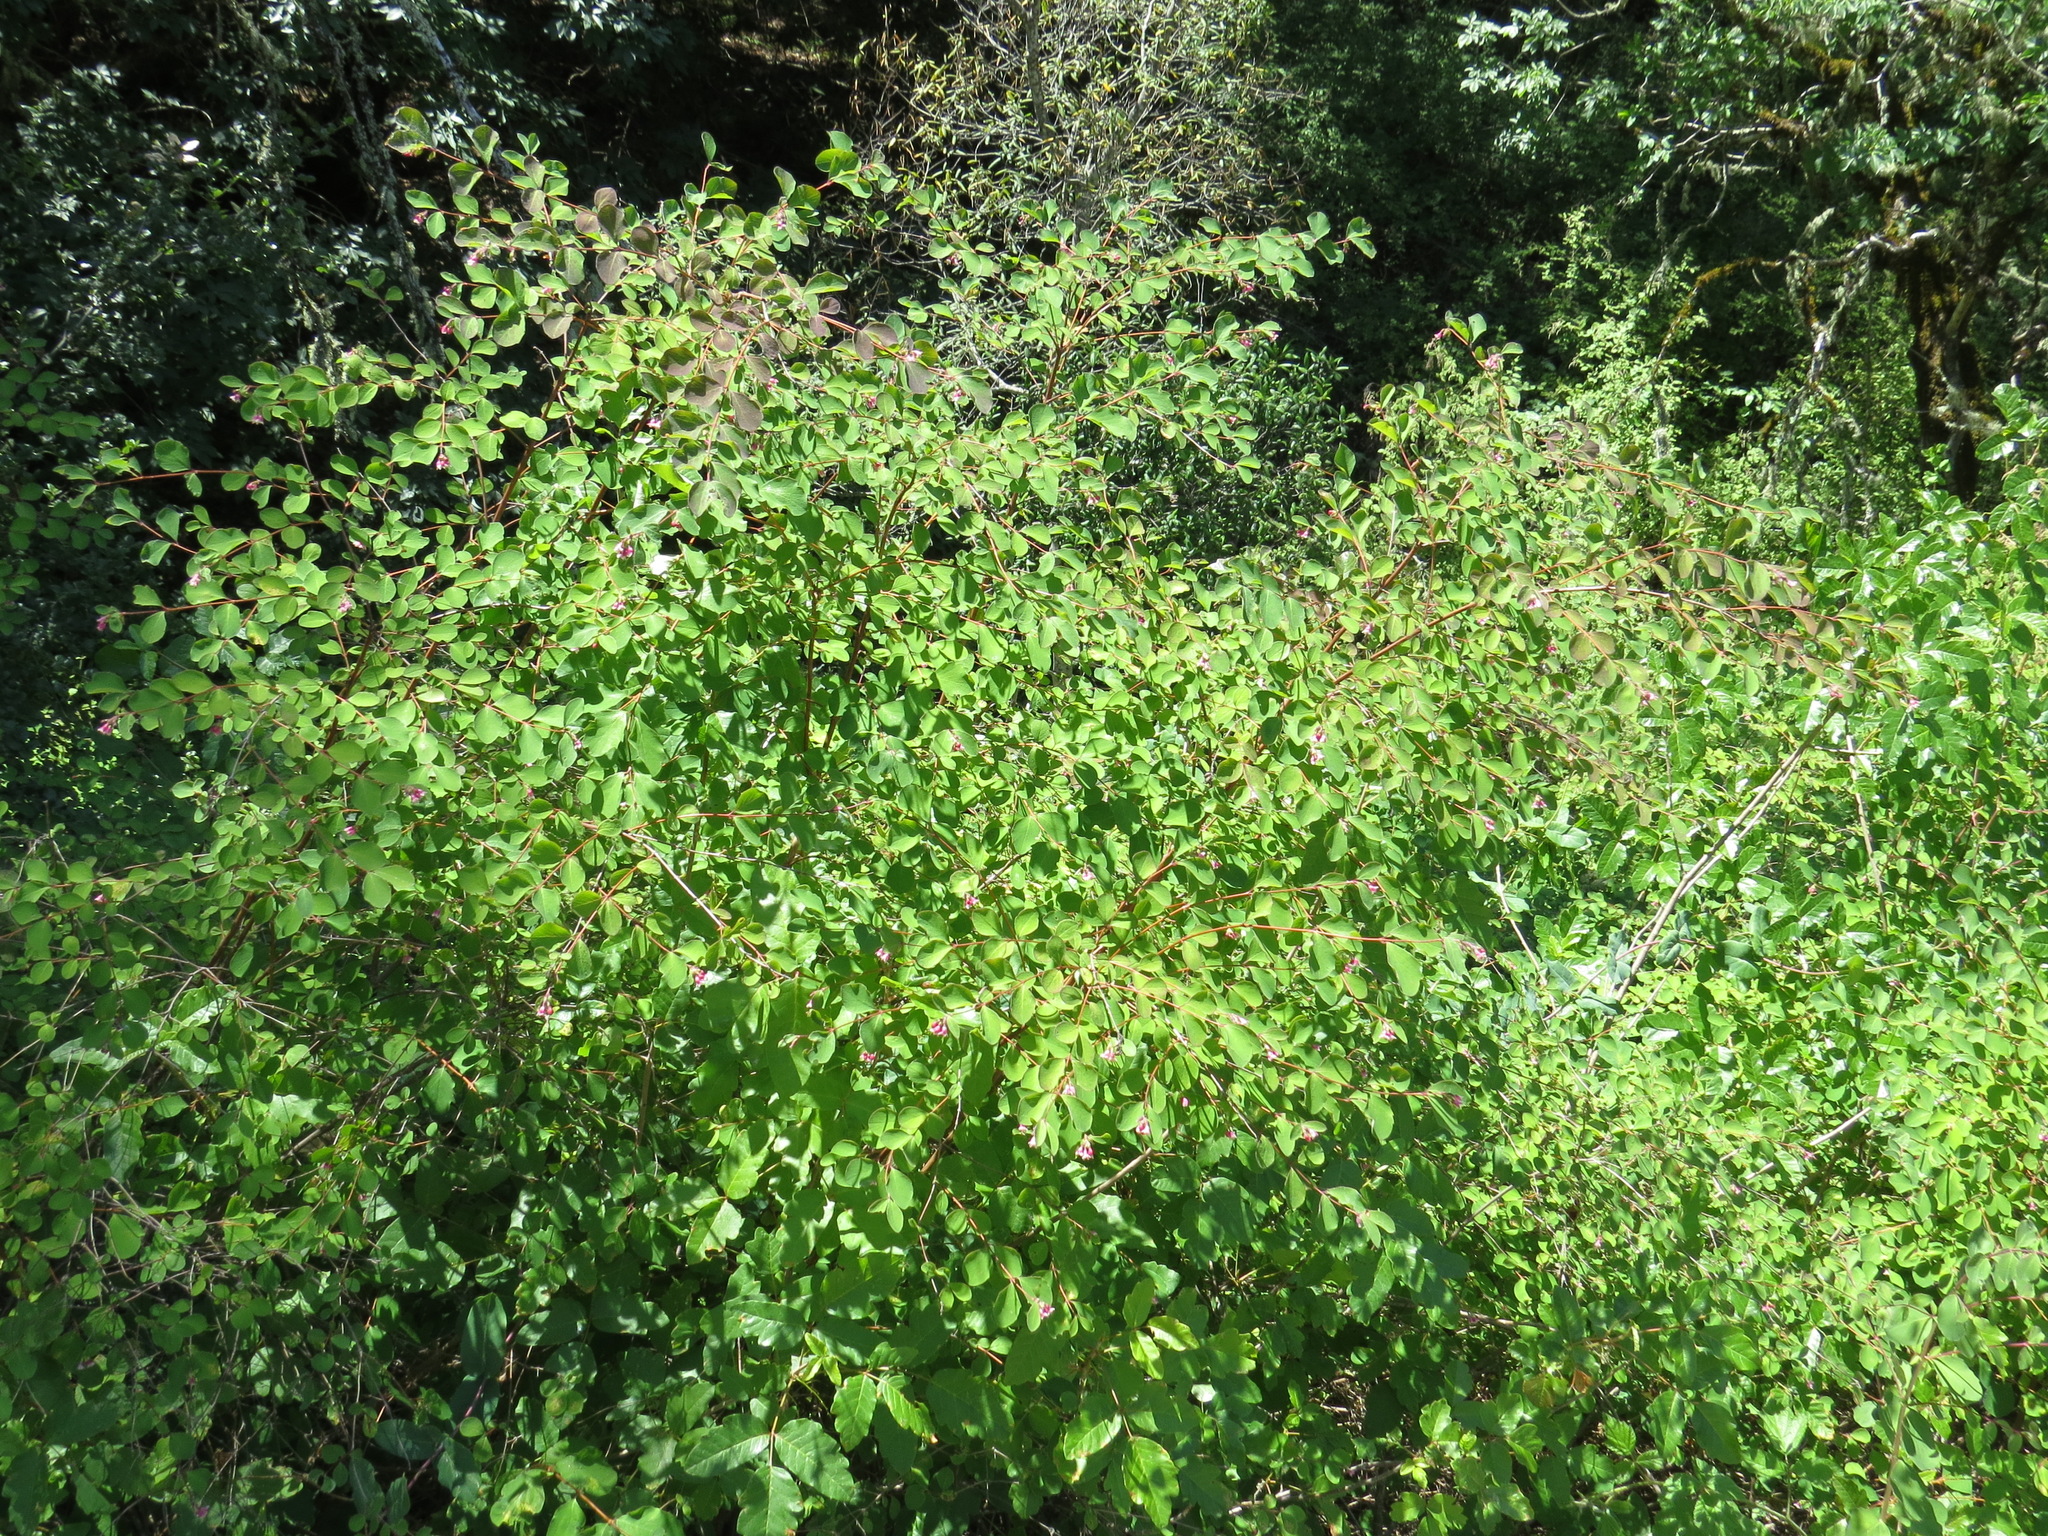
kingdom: Plantae
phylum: Tracheophyta
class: Magnoliopsida
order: Dipsacales
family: Caprifoliaceae
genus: Symphoricarpos
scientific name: Symphoricarpos albus
